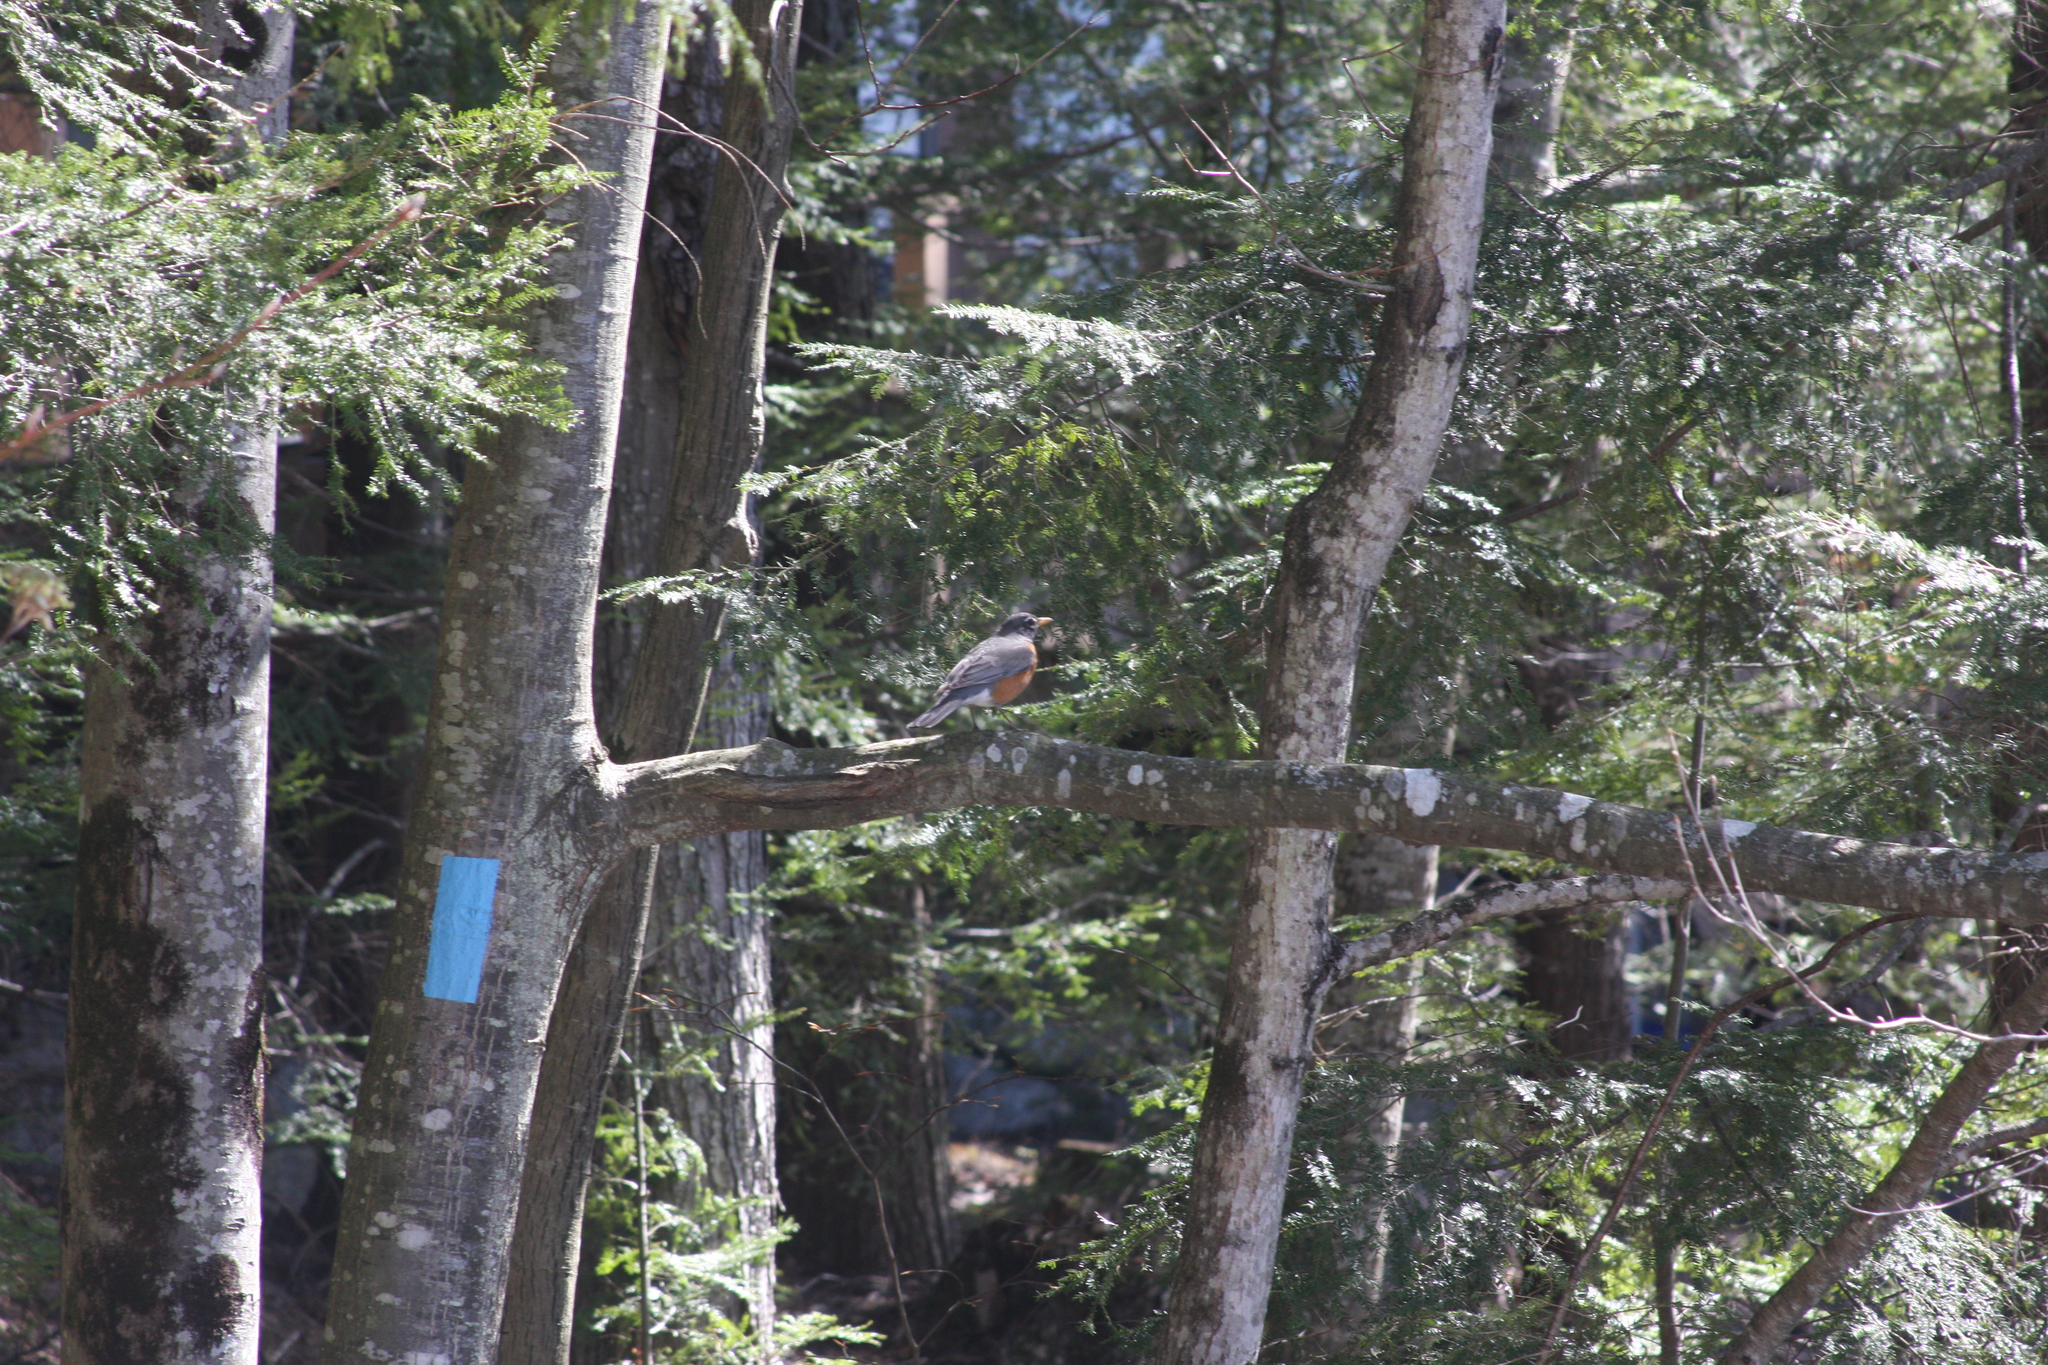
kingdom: Animalia
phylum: Chordata
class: Aves
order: Passeriformes
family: Turdidae
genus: Turdus
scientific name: Turdus migratorius
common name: American robin
